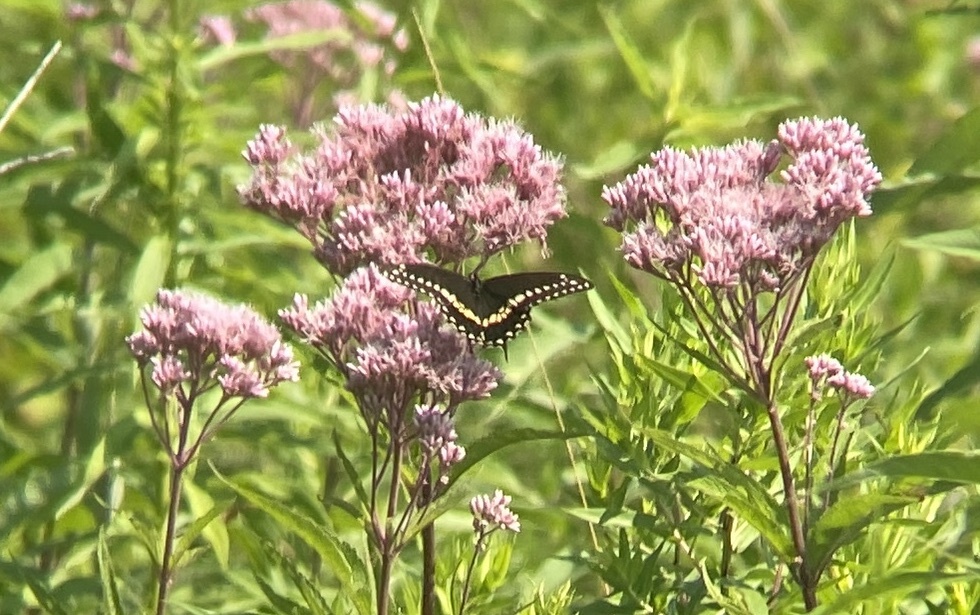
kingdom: Animalia
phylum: Arthropoda
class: Insecta
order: Lepidoptera
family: Papilionidae
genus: Papilio
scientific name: Papilio polyxenes
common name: Black swallowtail
